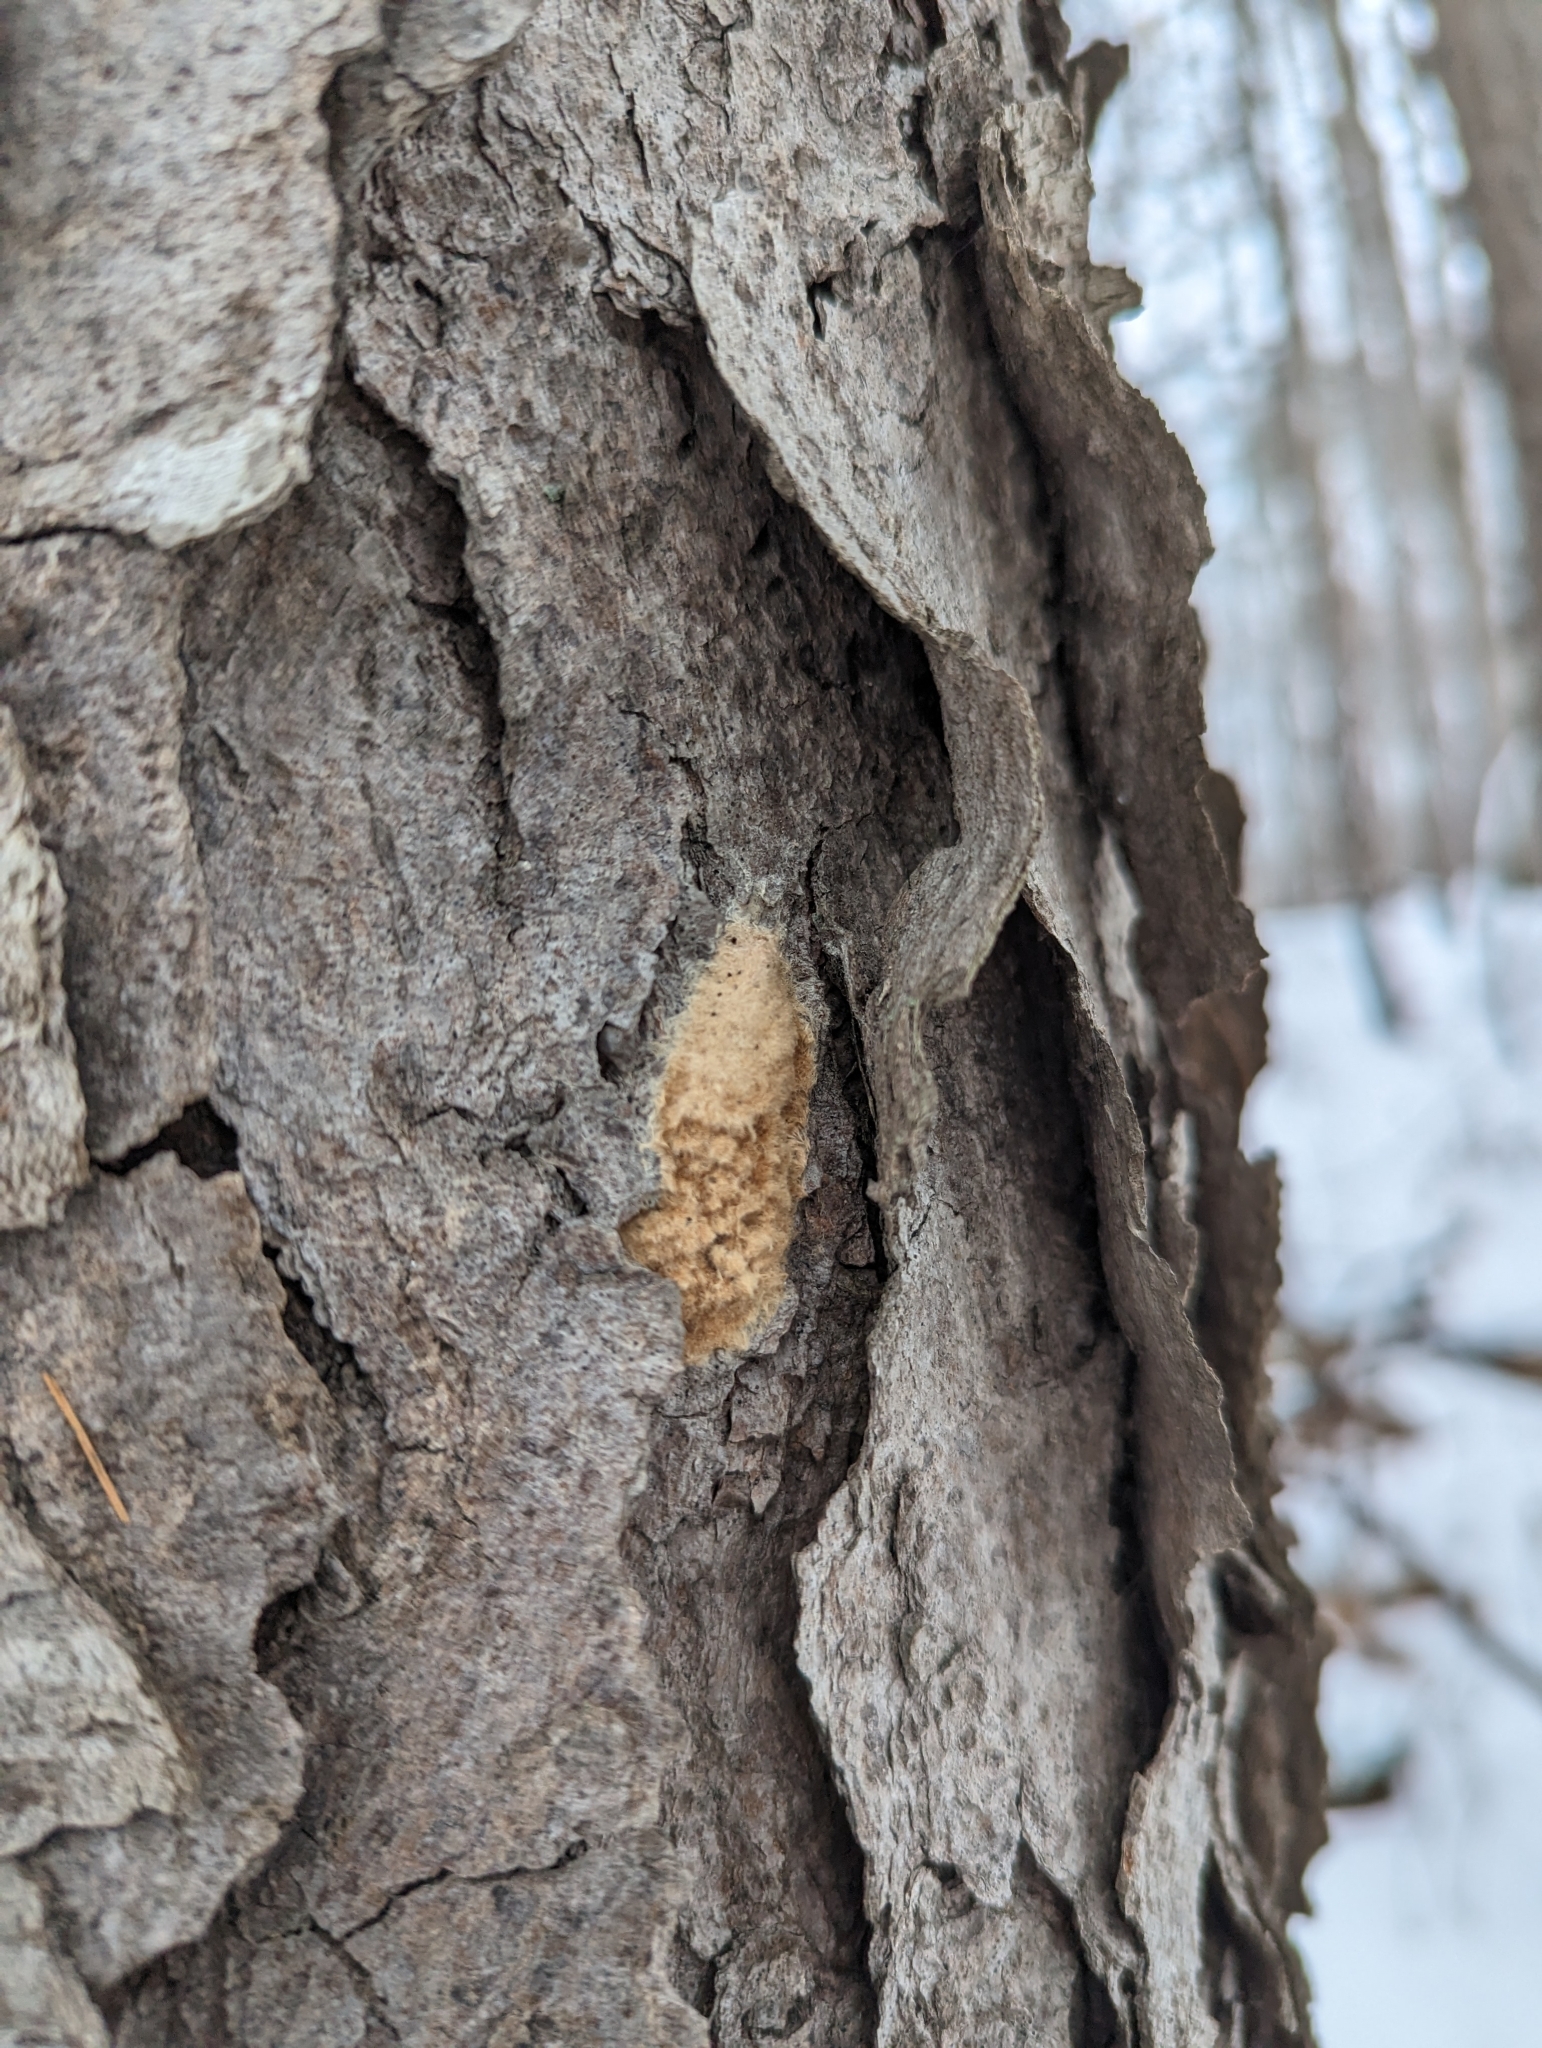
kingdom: Animalia
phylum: Arthropoda
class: Insecta
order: Lepidoptera
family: Erebidae
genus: Lymantria
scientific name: Lymantria dispar
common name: Gypsy moth
